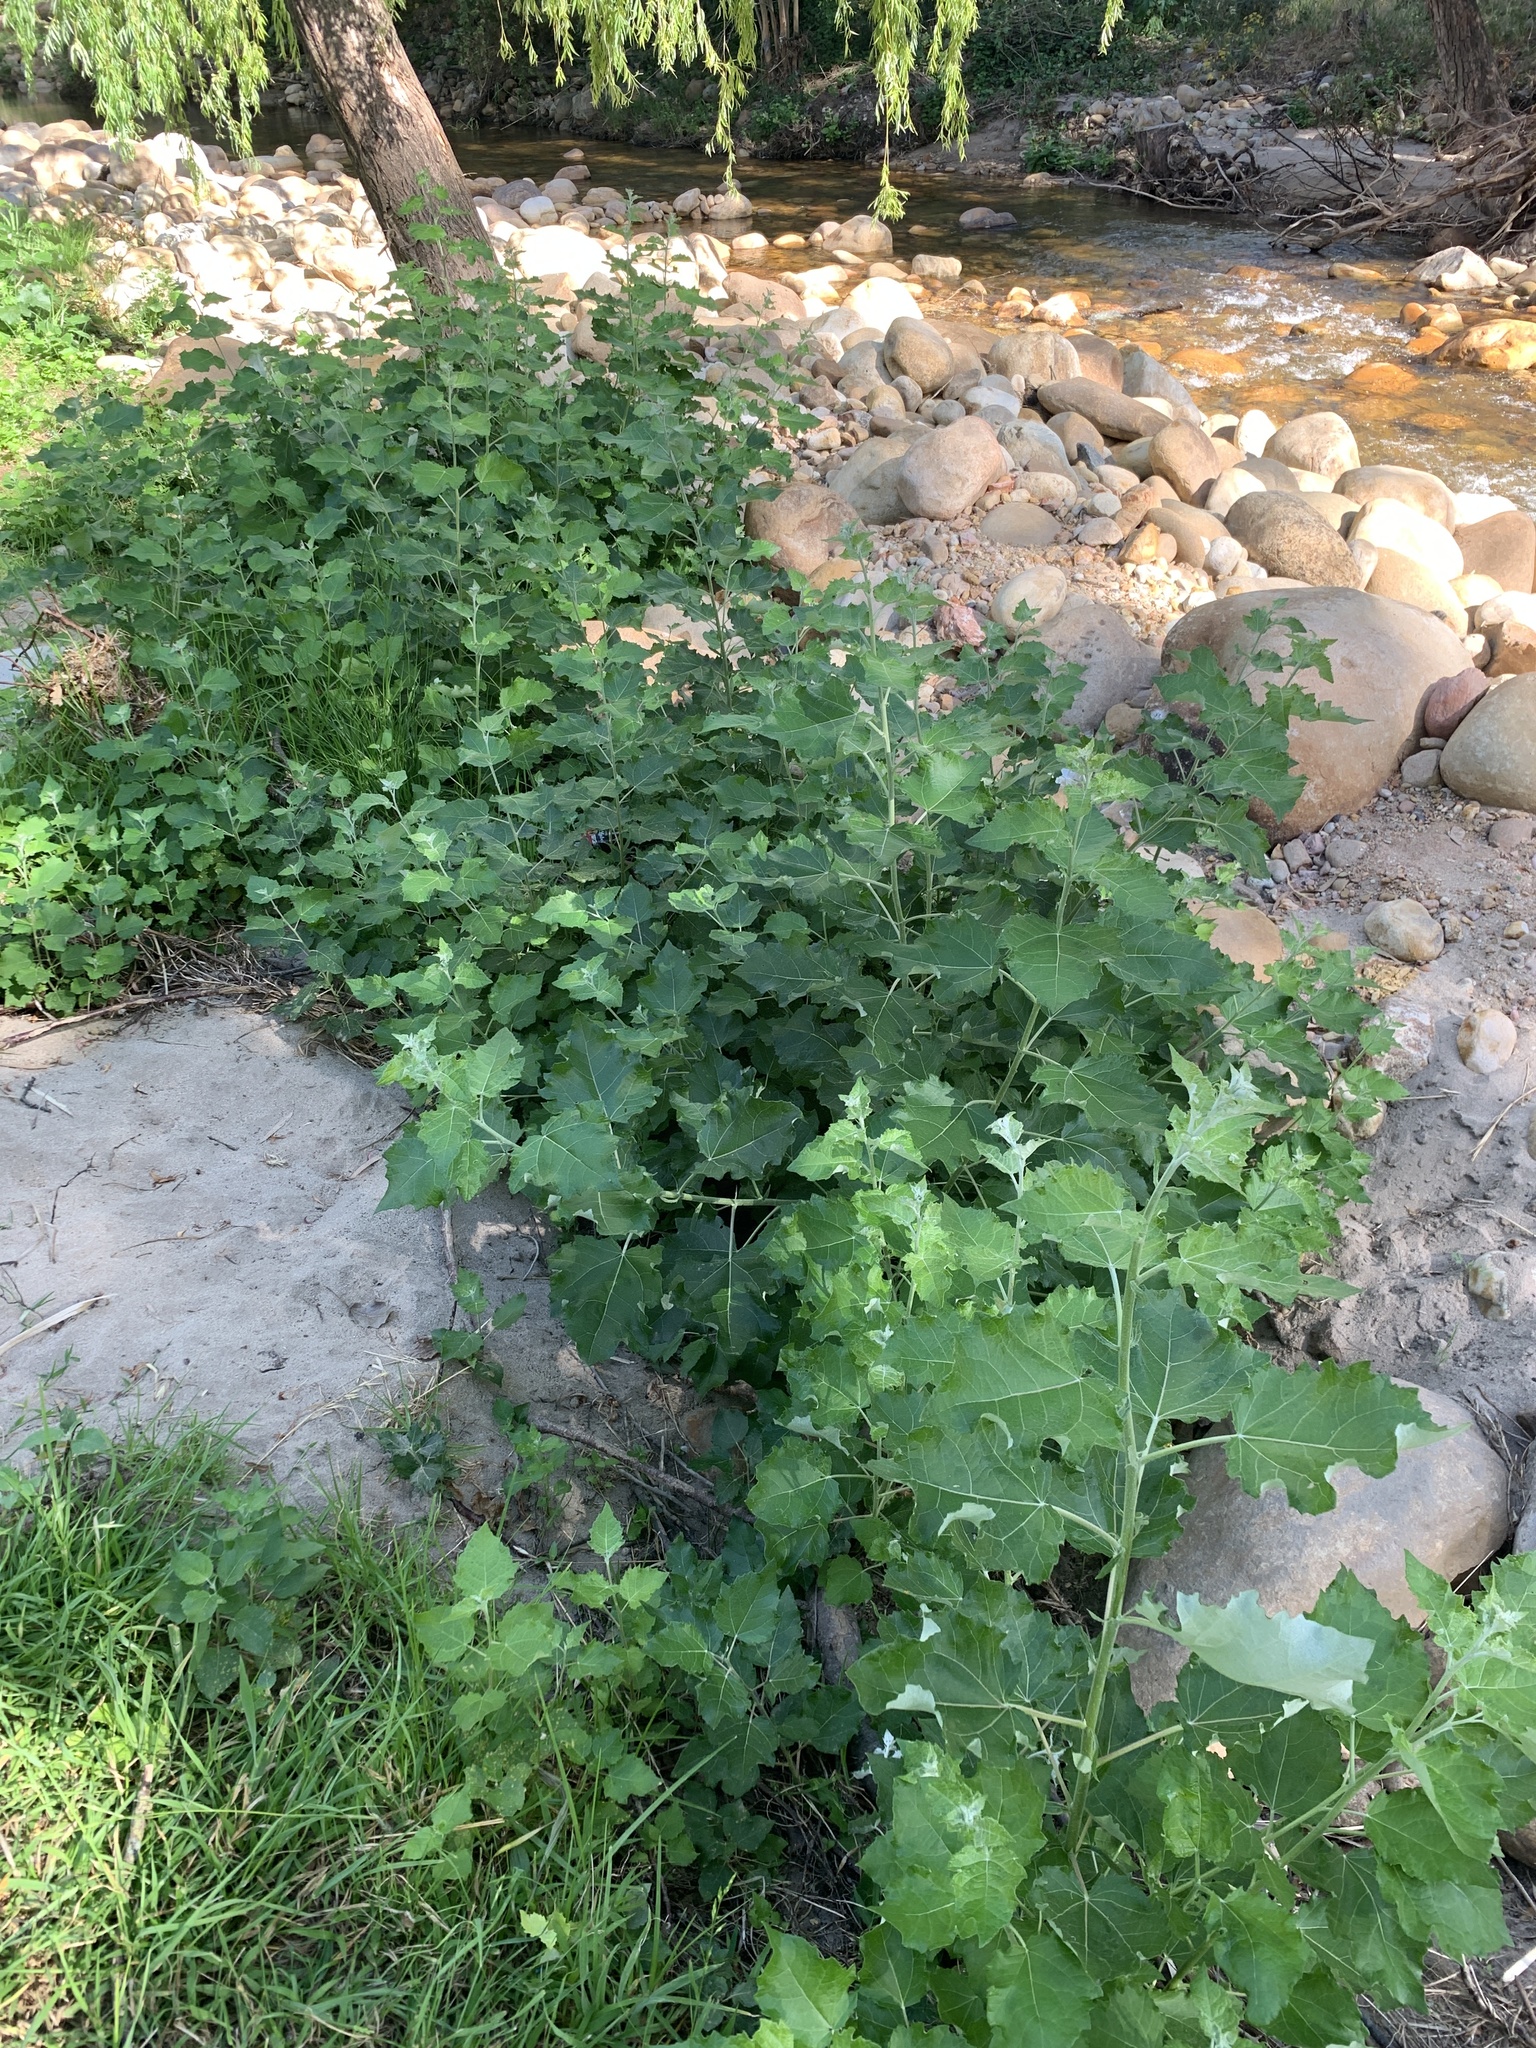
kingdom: Plantae
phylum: Tracheophyta
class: Magnoliopsida
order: Malpighiales
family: Salicaceae
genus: Populus
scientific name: Populus canescens
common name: Gray poplar
